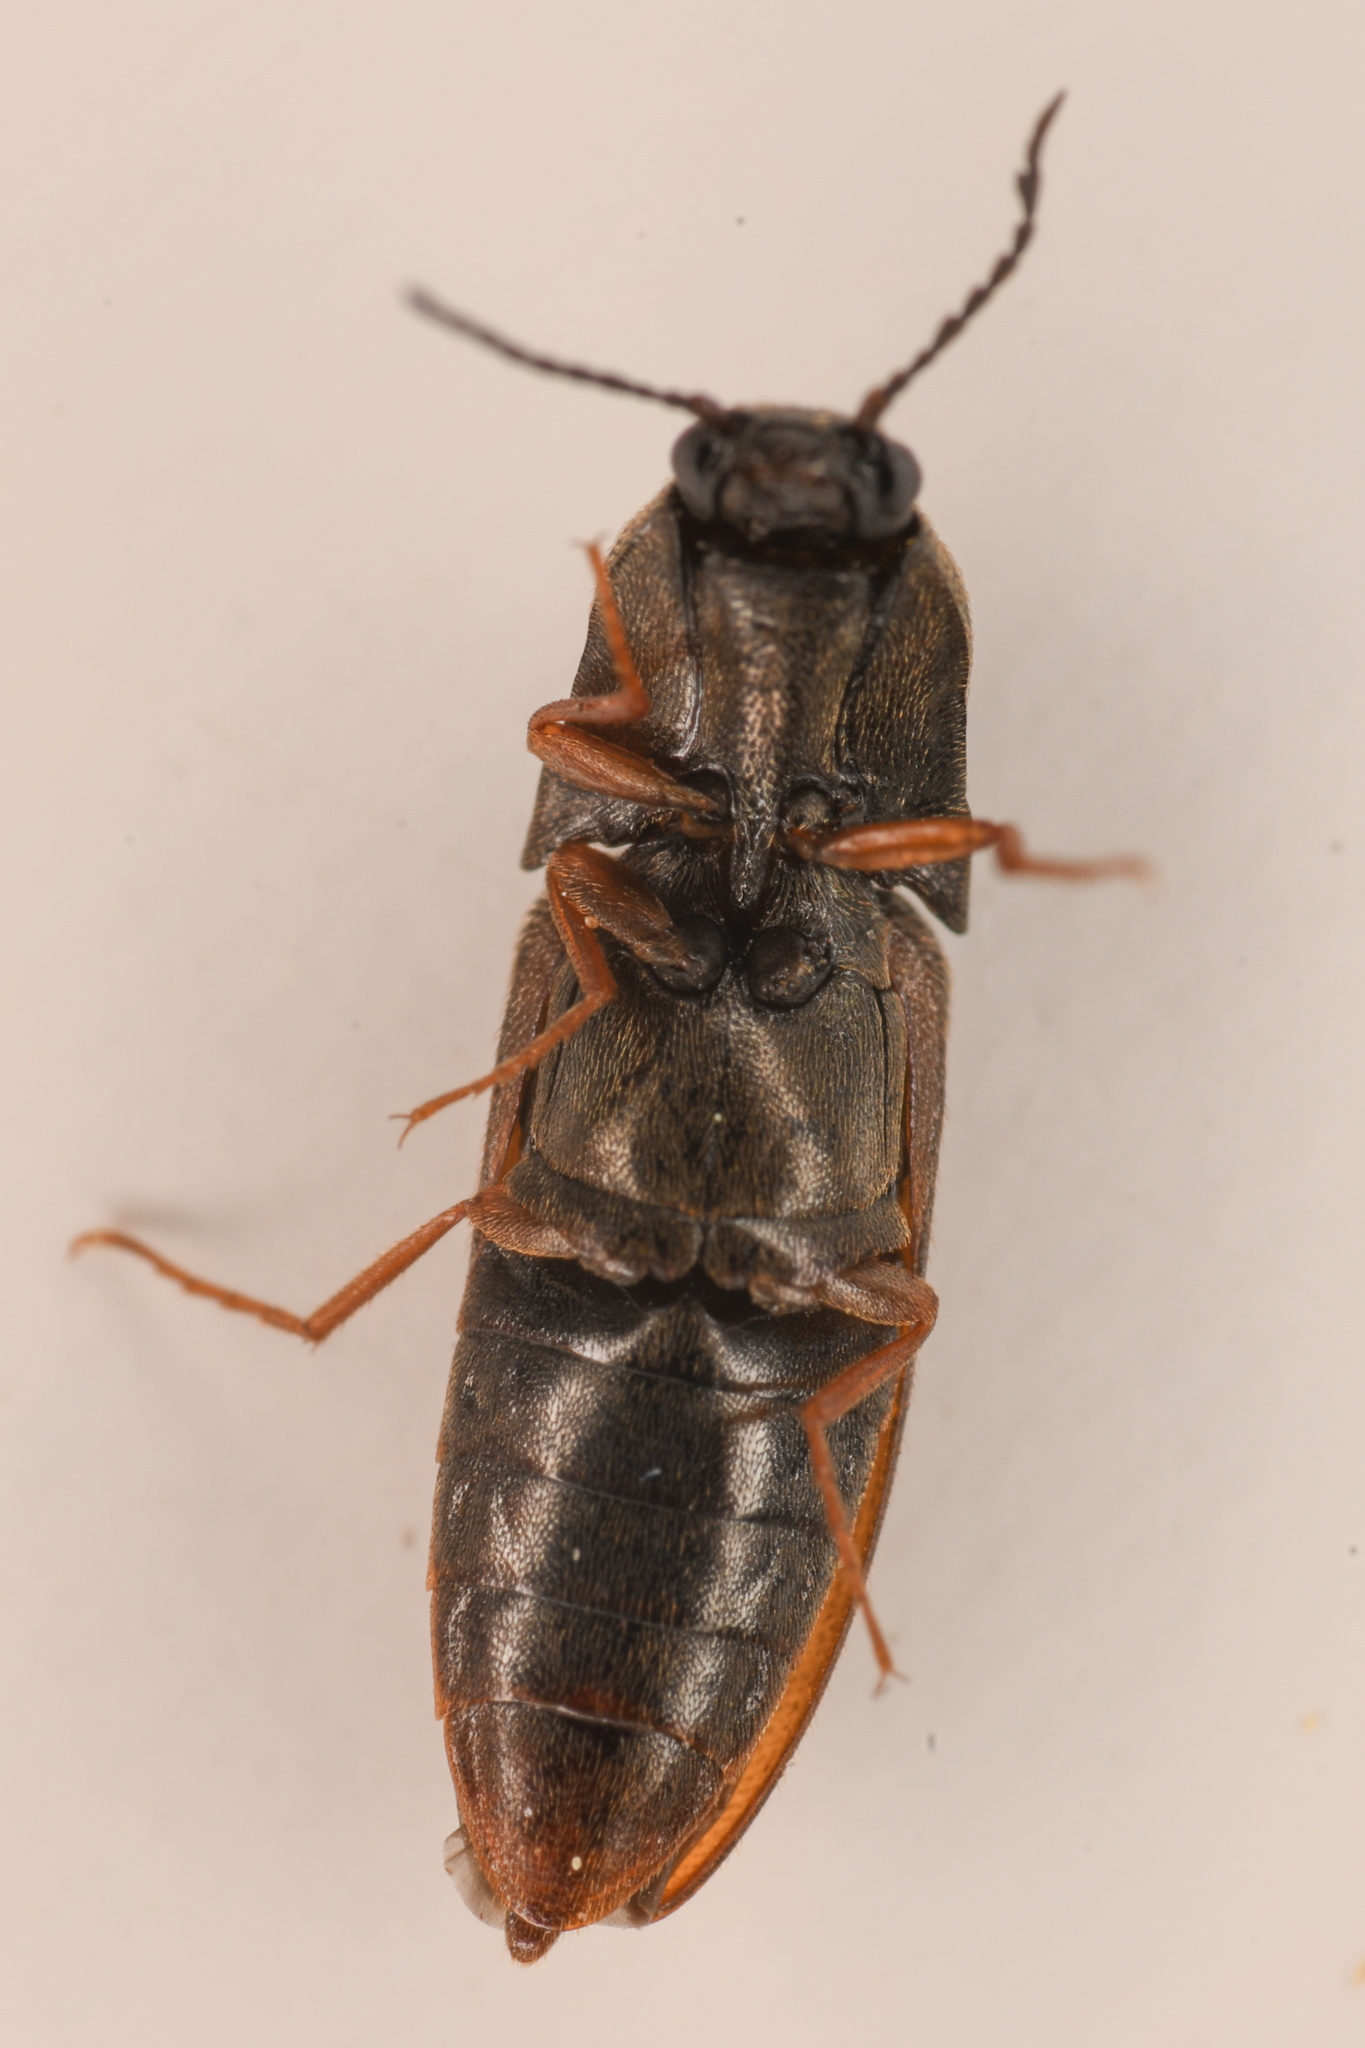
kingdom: Animalia
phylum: Arthropoda
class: Insecta
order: Coleoptera
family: Elateridae
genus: Sericus
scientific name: Sericus incongruus
